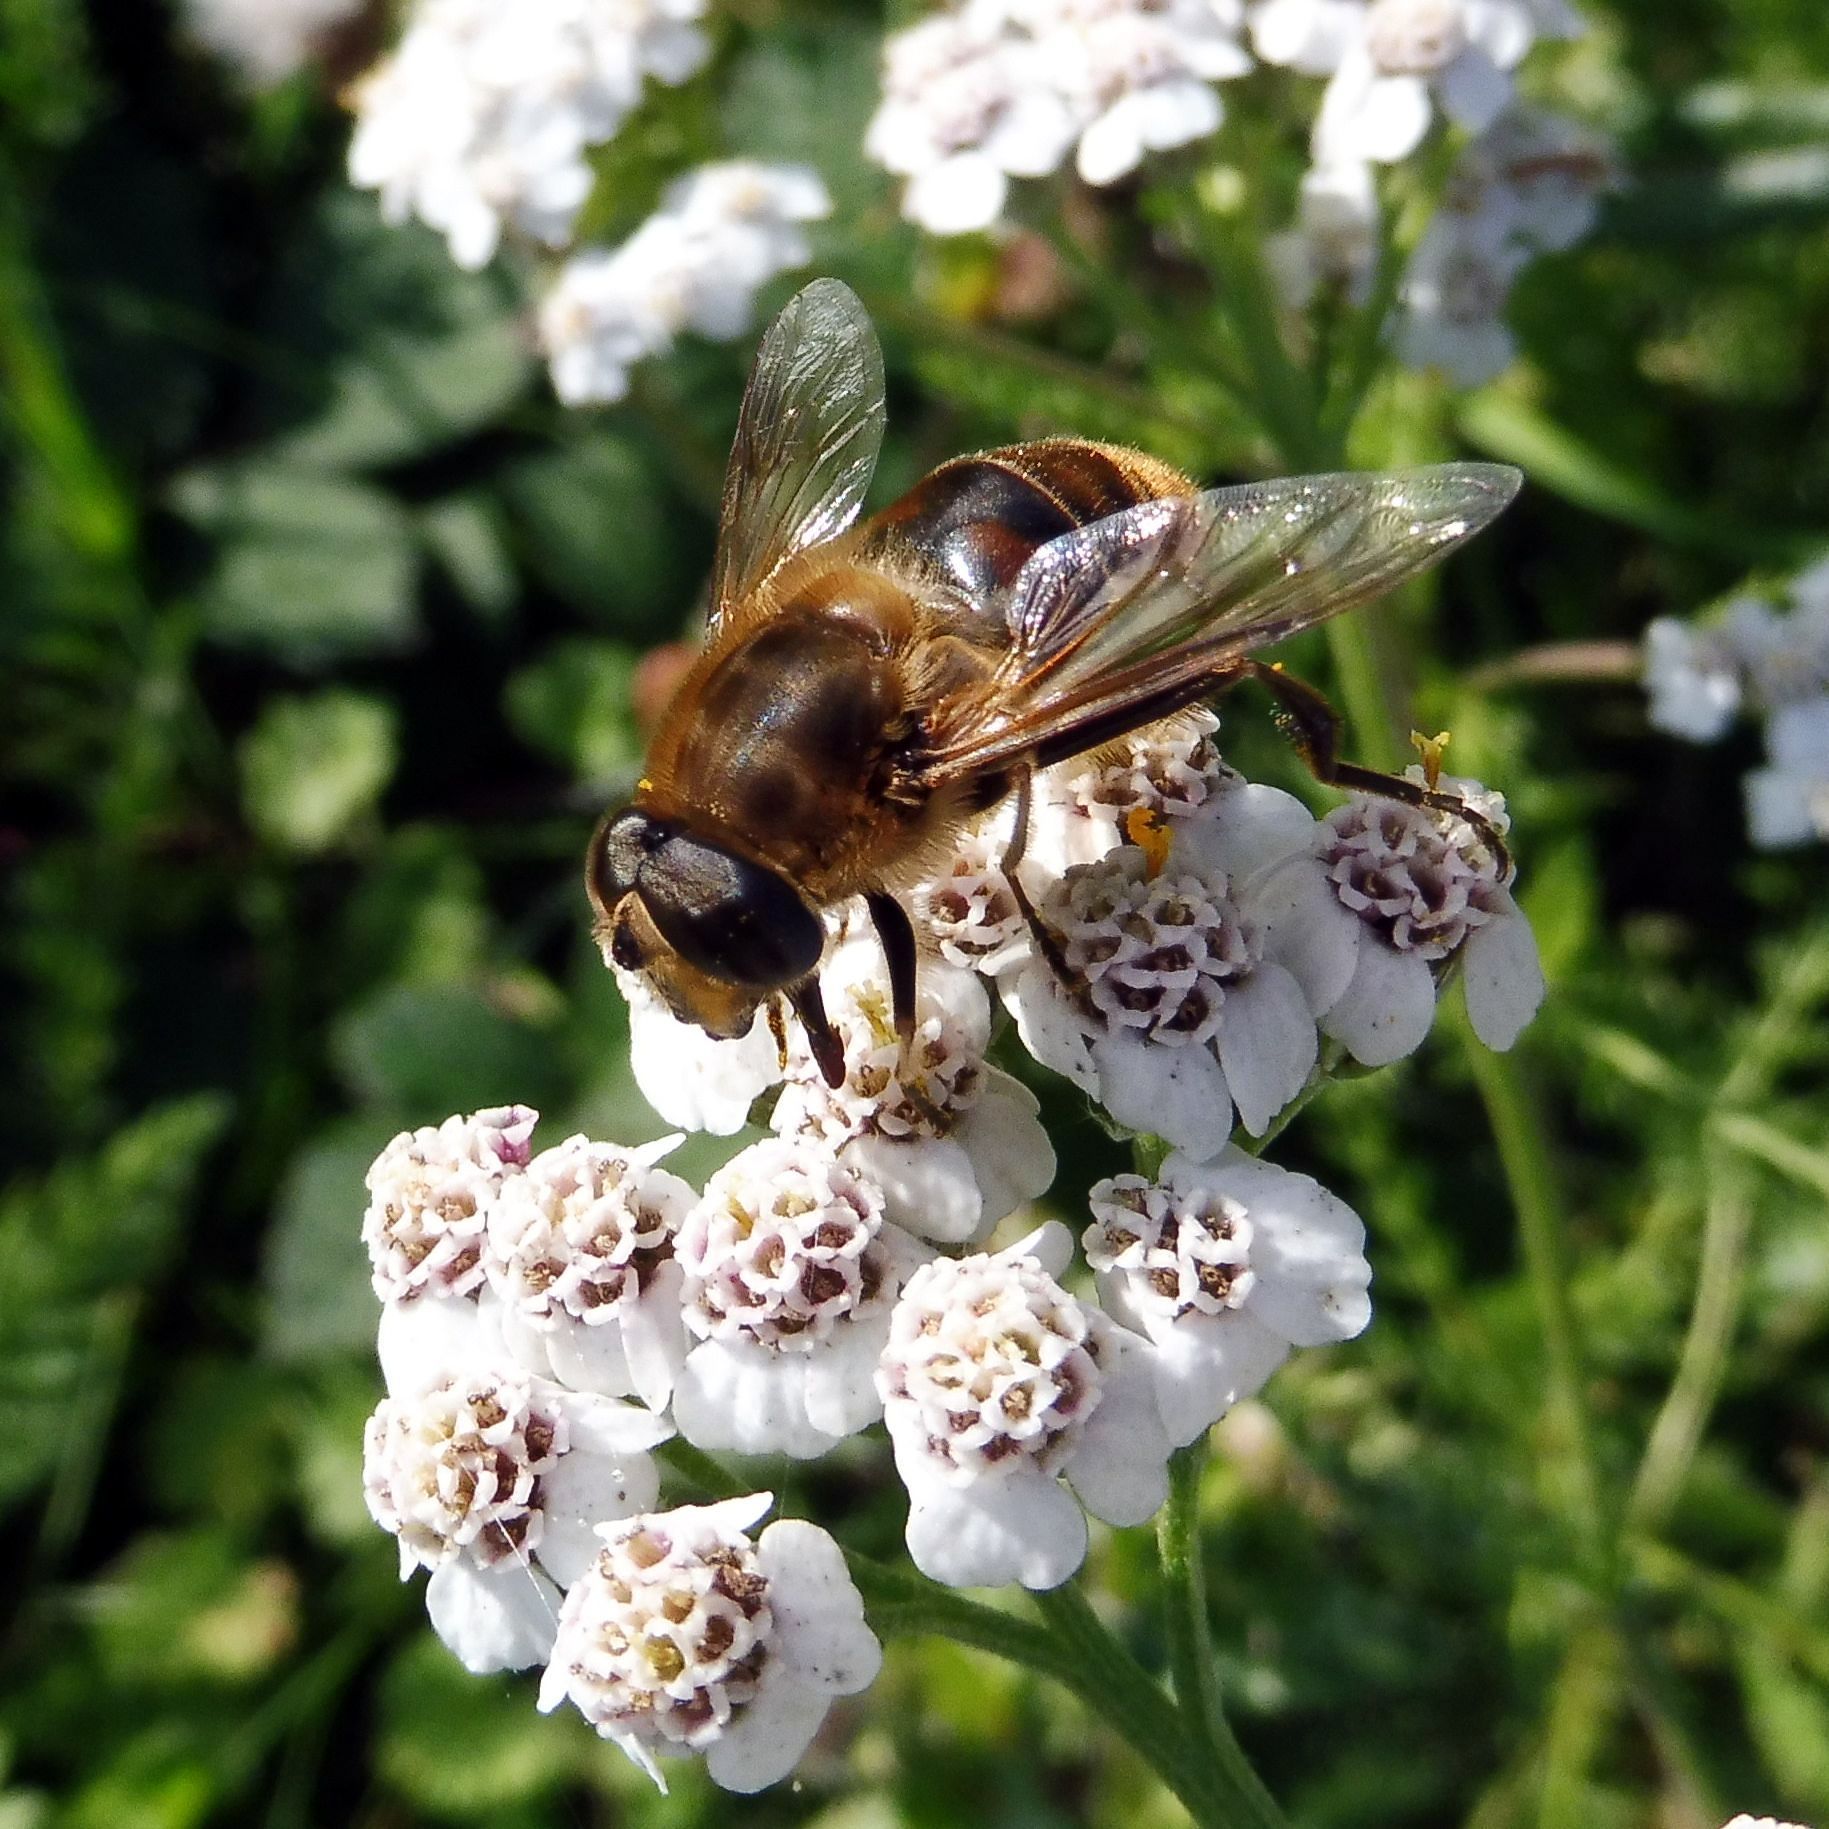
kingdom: Animalia
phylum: Arthropoda
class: Insecta
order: Diptera
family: Syrphidae
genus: Eristalis
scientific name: Eristalis tenax
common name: Drone fly
